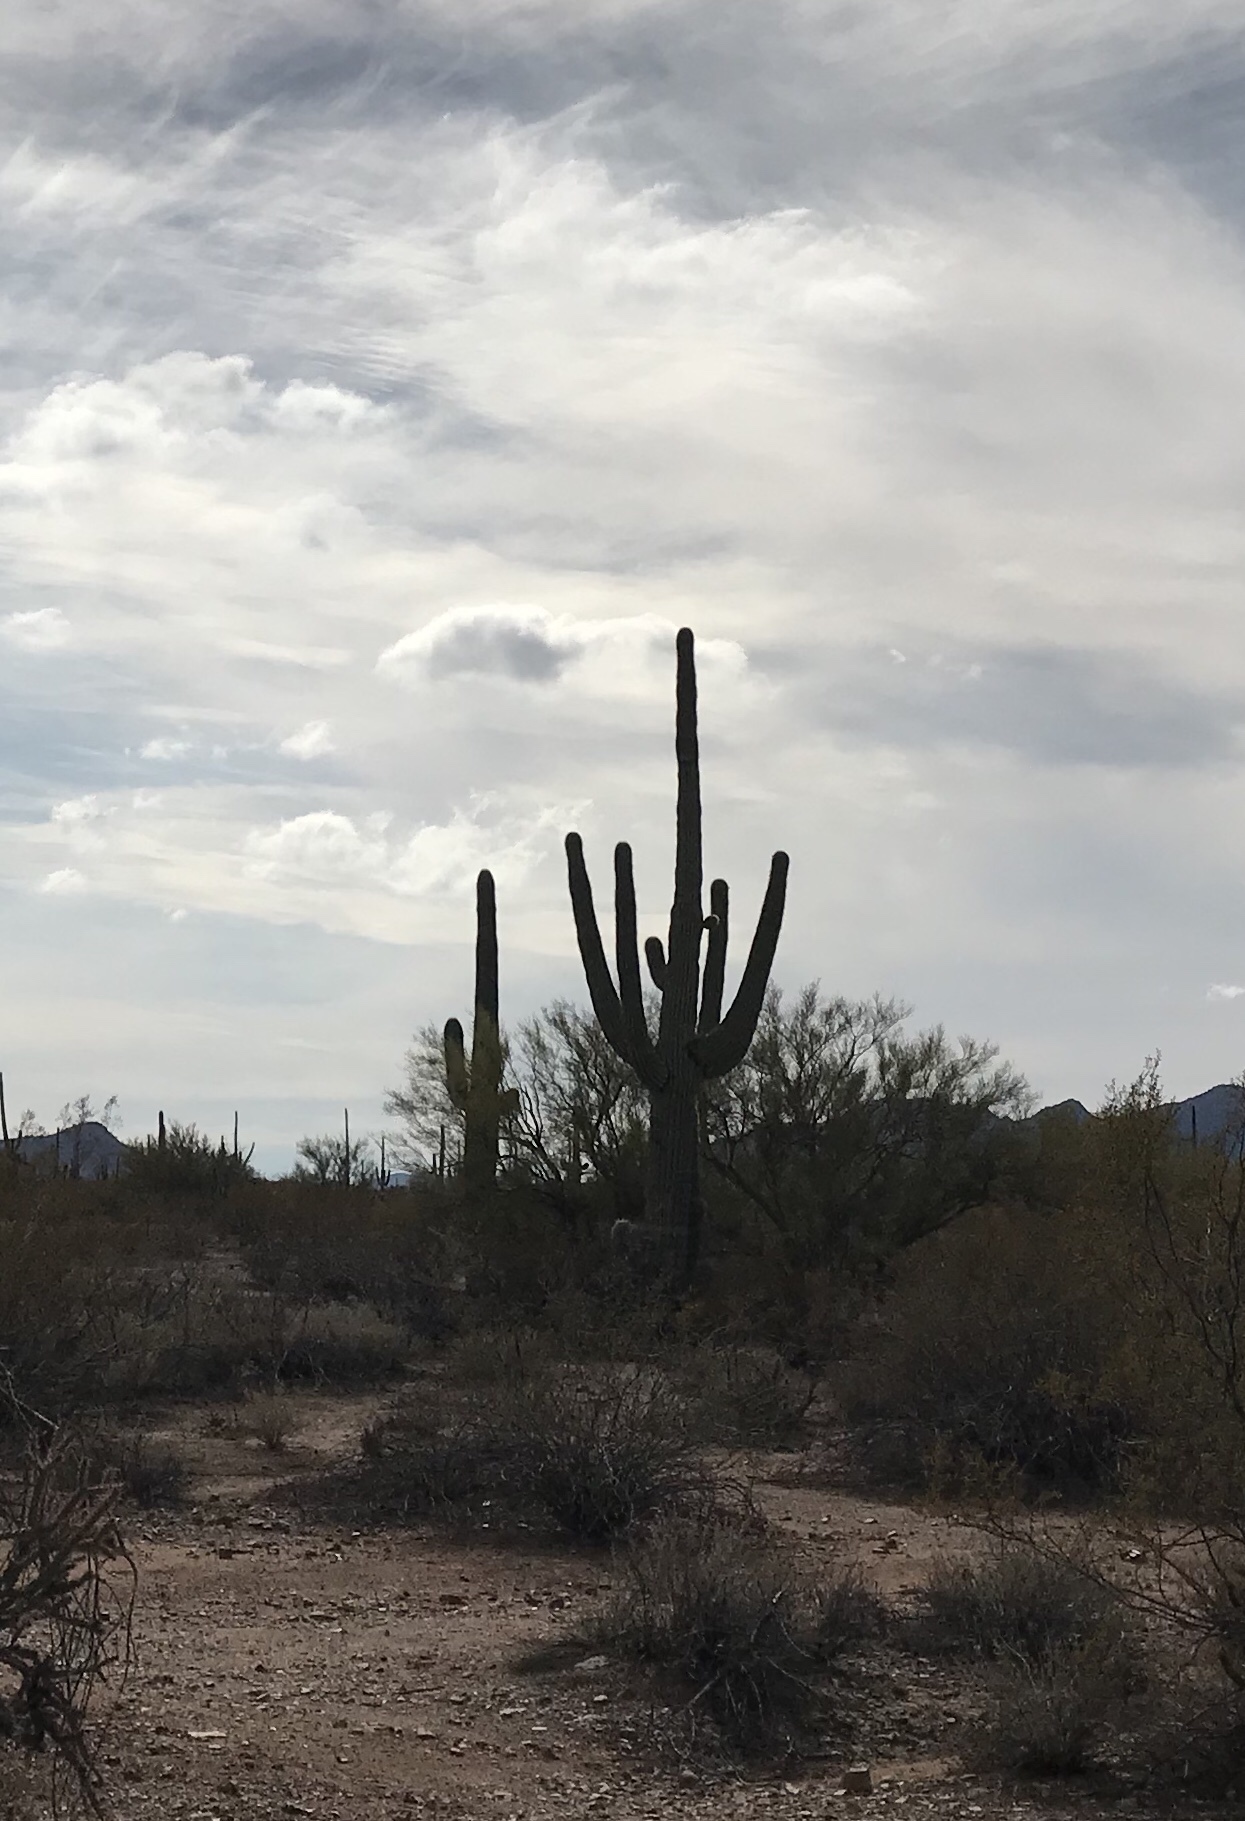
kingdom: Plantae
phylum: Tracheophyta
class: Magnoliopsida
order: Caryophyllales
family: Cactaceae
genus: Carnegiea
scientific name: Carnegiea gigantea
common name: Saguaro
